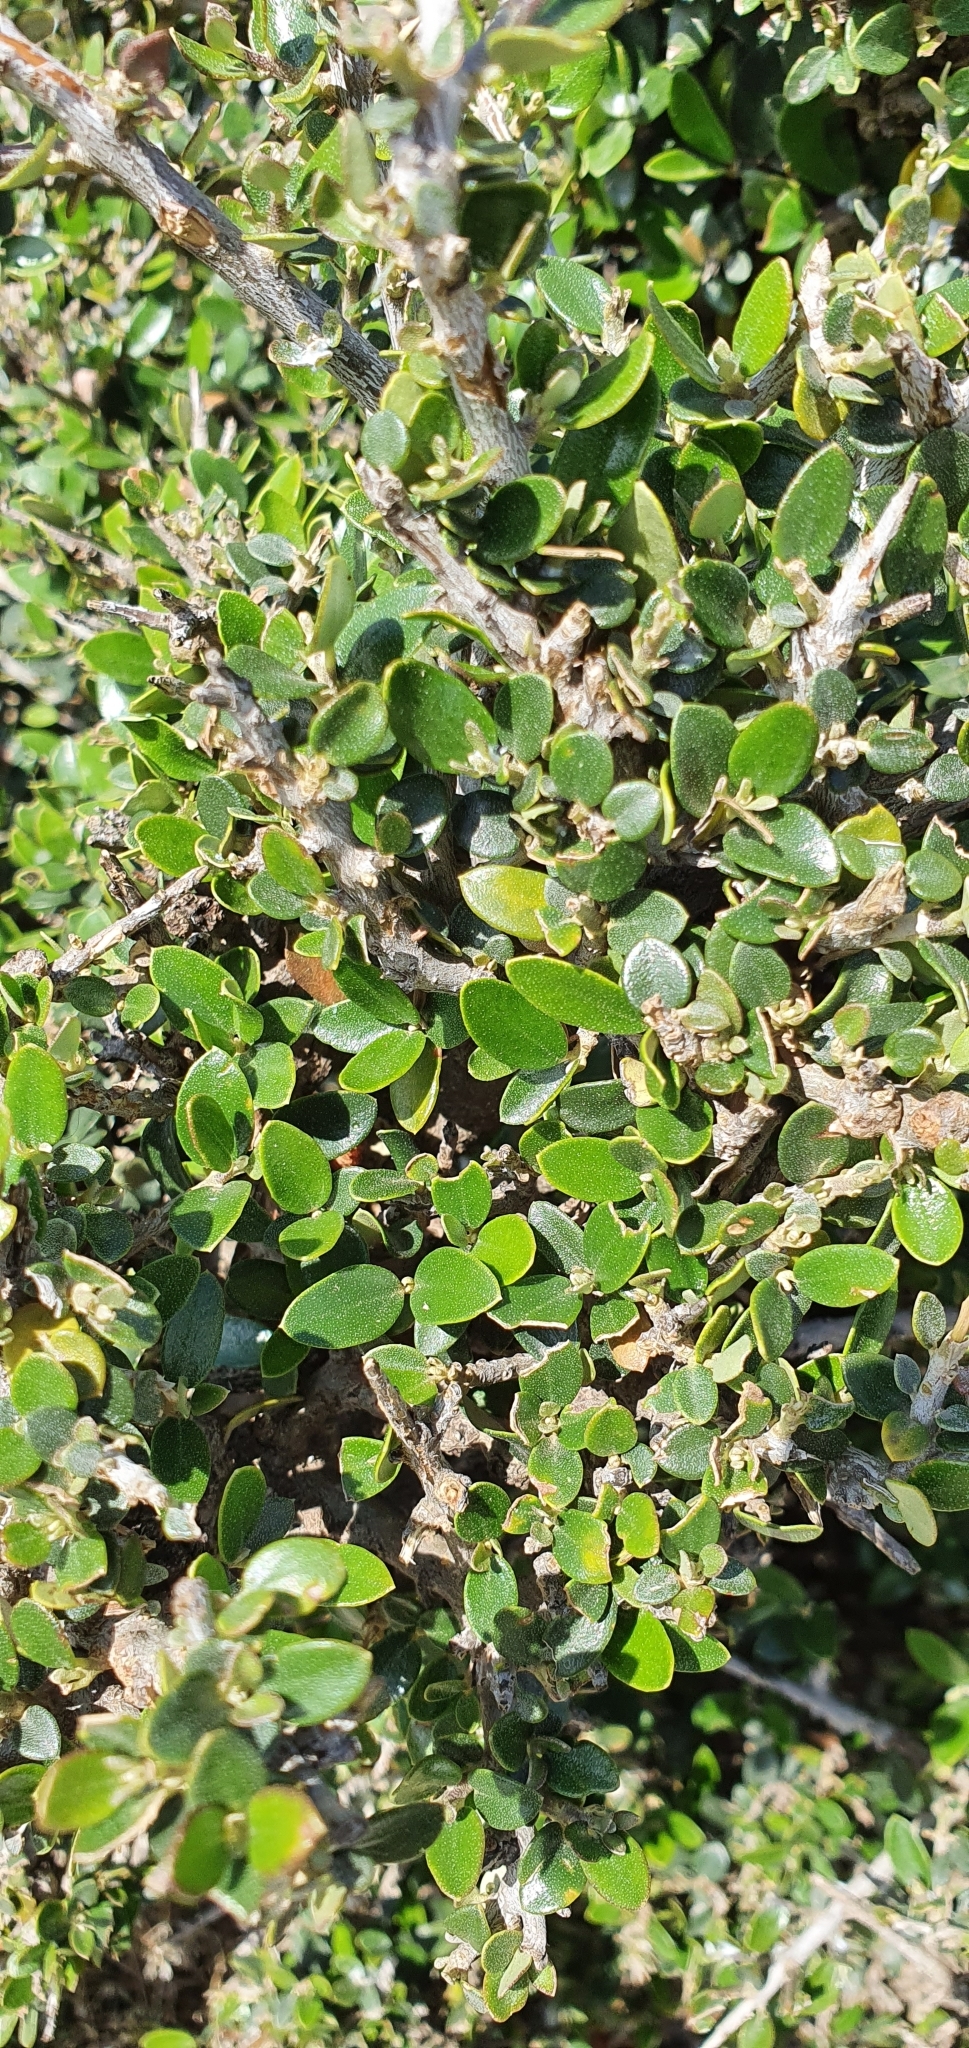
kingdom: Plantae
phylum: Tracheophyta
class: Magnoliopsida
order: Lamiales
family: Oleaceae
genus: Olea
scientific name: Olea europaea
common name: Olive
